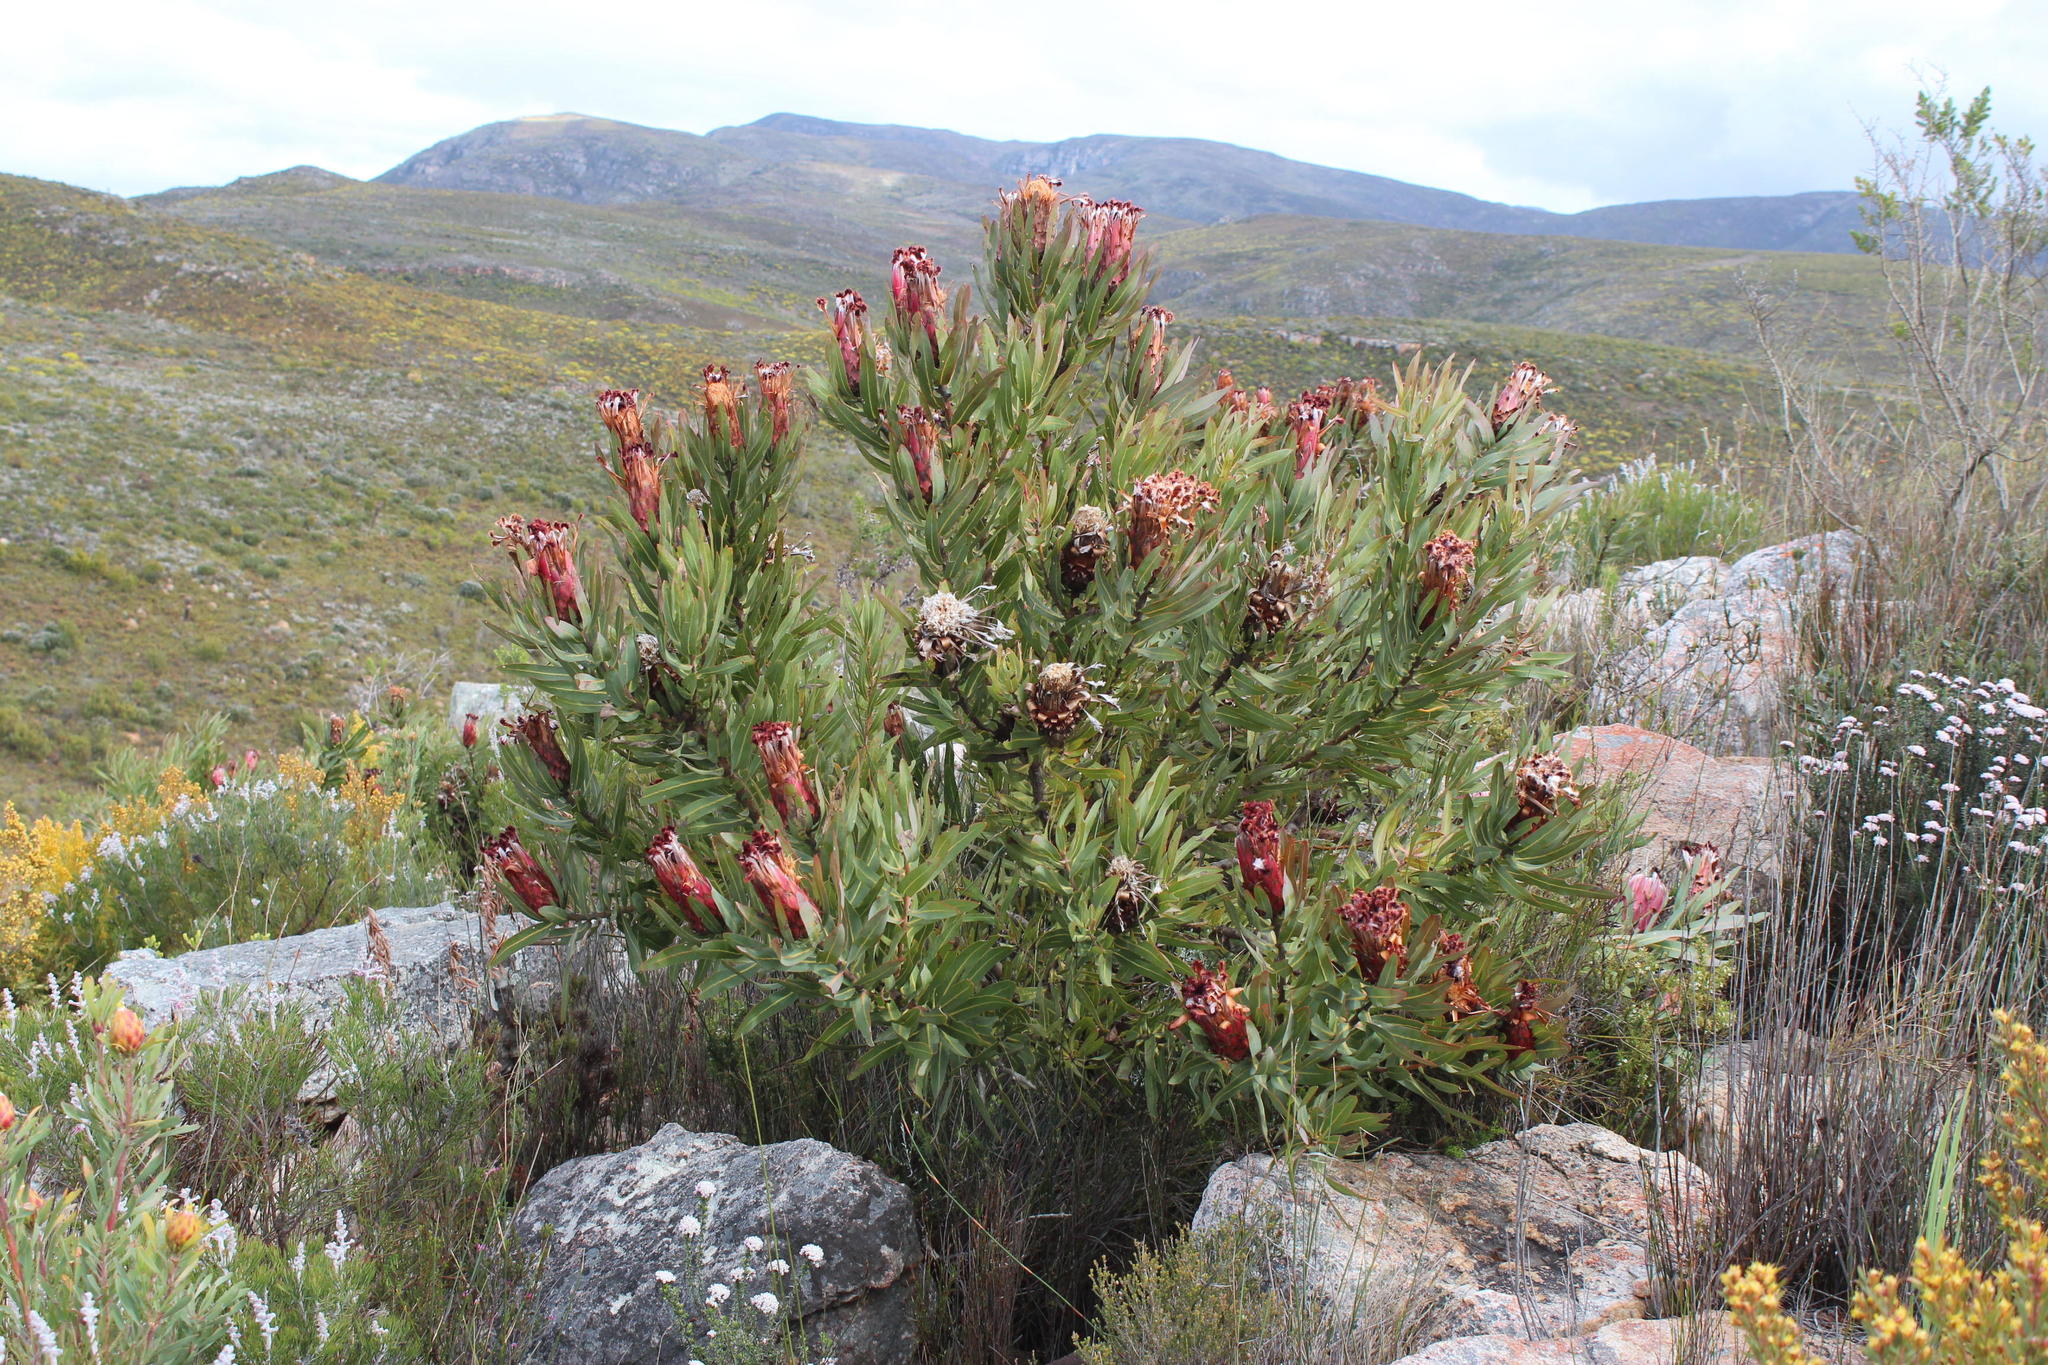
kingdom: Plantae
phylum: Tracheophyta
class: Magnoliopsida
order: Proteales
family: Proteaceae
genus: Protea
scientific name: Protea neriifolia
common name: Blue sugarbush
